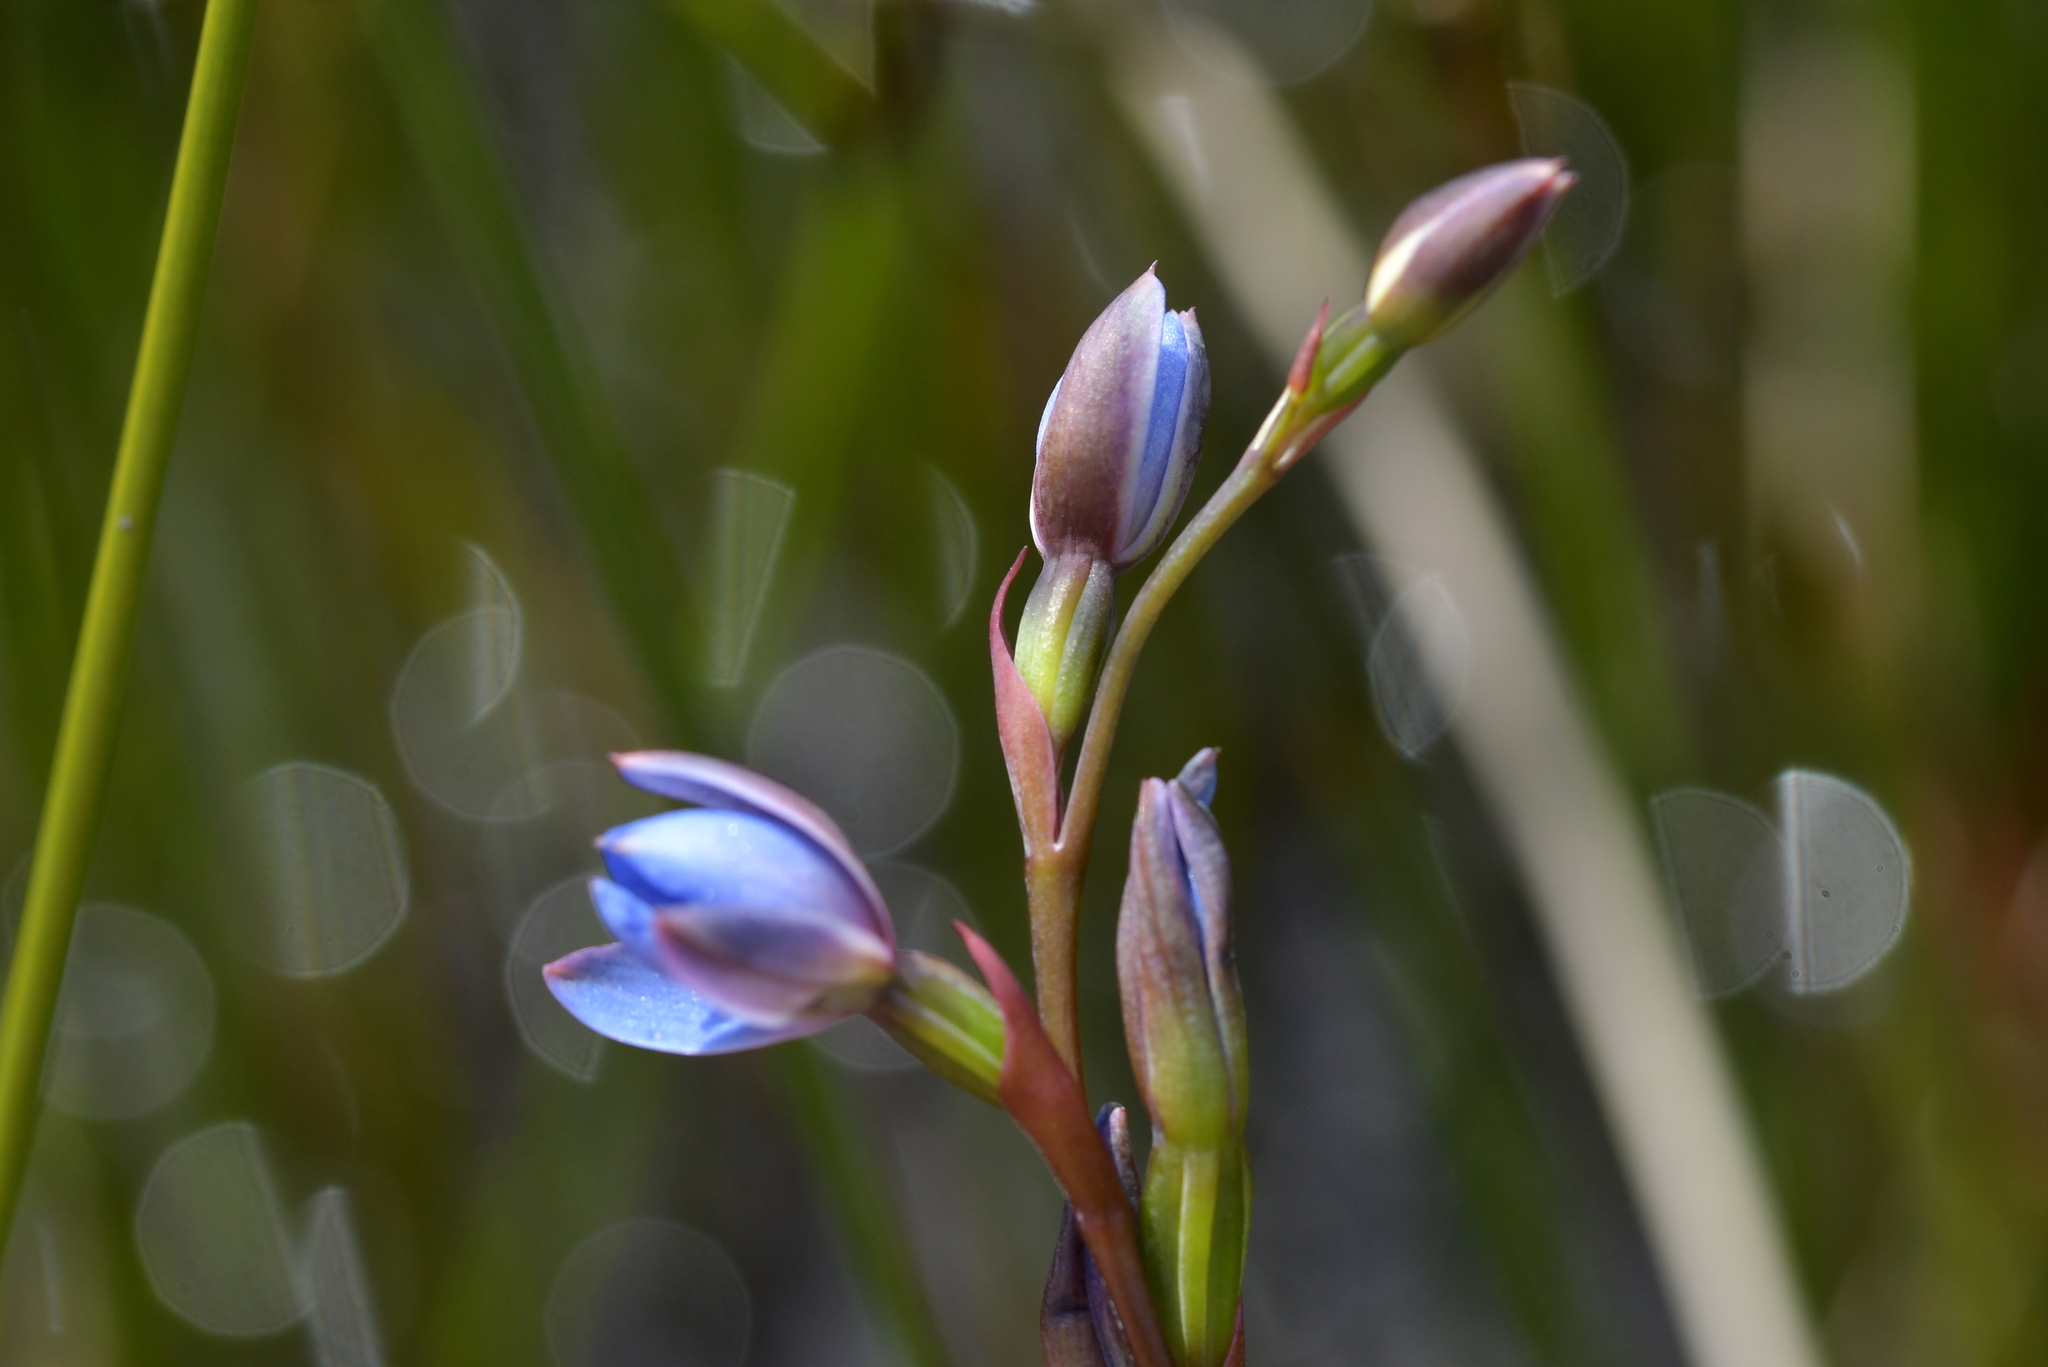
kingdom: Plantae
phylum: Tracheophyta
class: Liliopsida
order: Asparagales
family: Orchidaceae
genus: Thelymitra
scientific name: Thelymitra aemula
